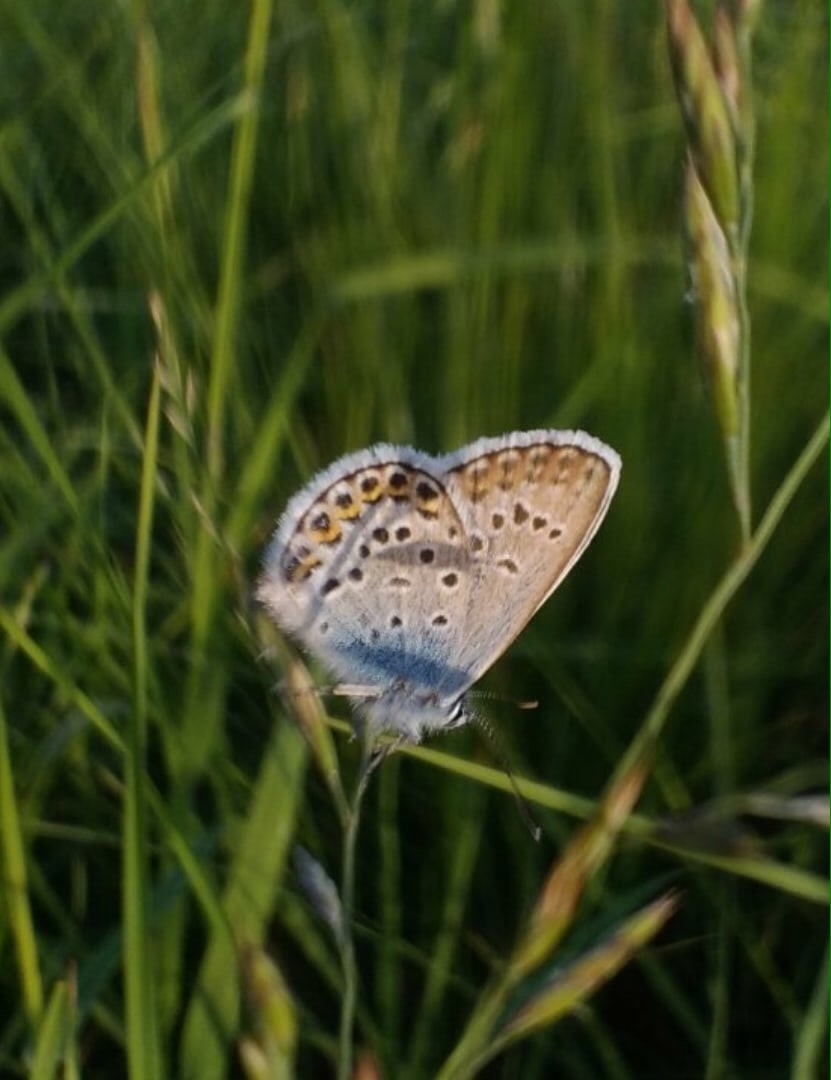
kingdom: Animalia
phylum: Arthropoda
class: Insecta
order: Lepidoptera
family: Lycaenidae
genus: Plebejus
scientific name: Plebejus argus
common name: Silver-studded blue
